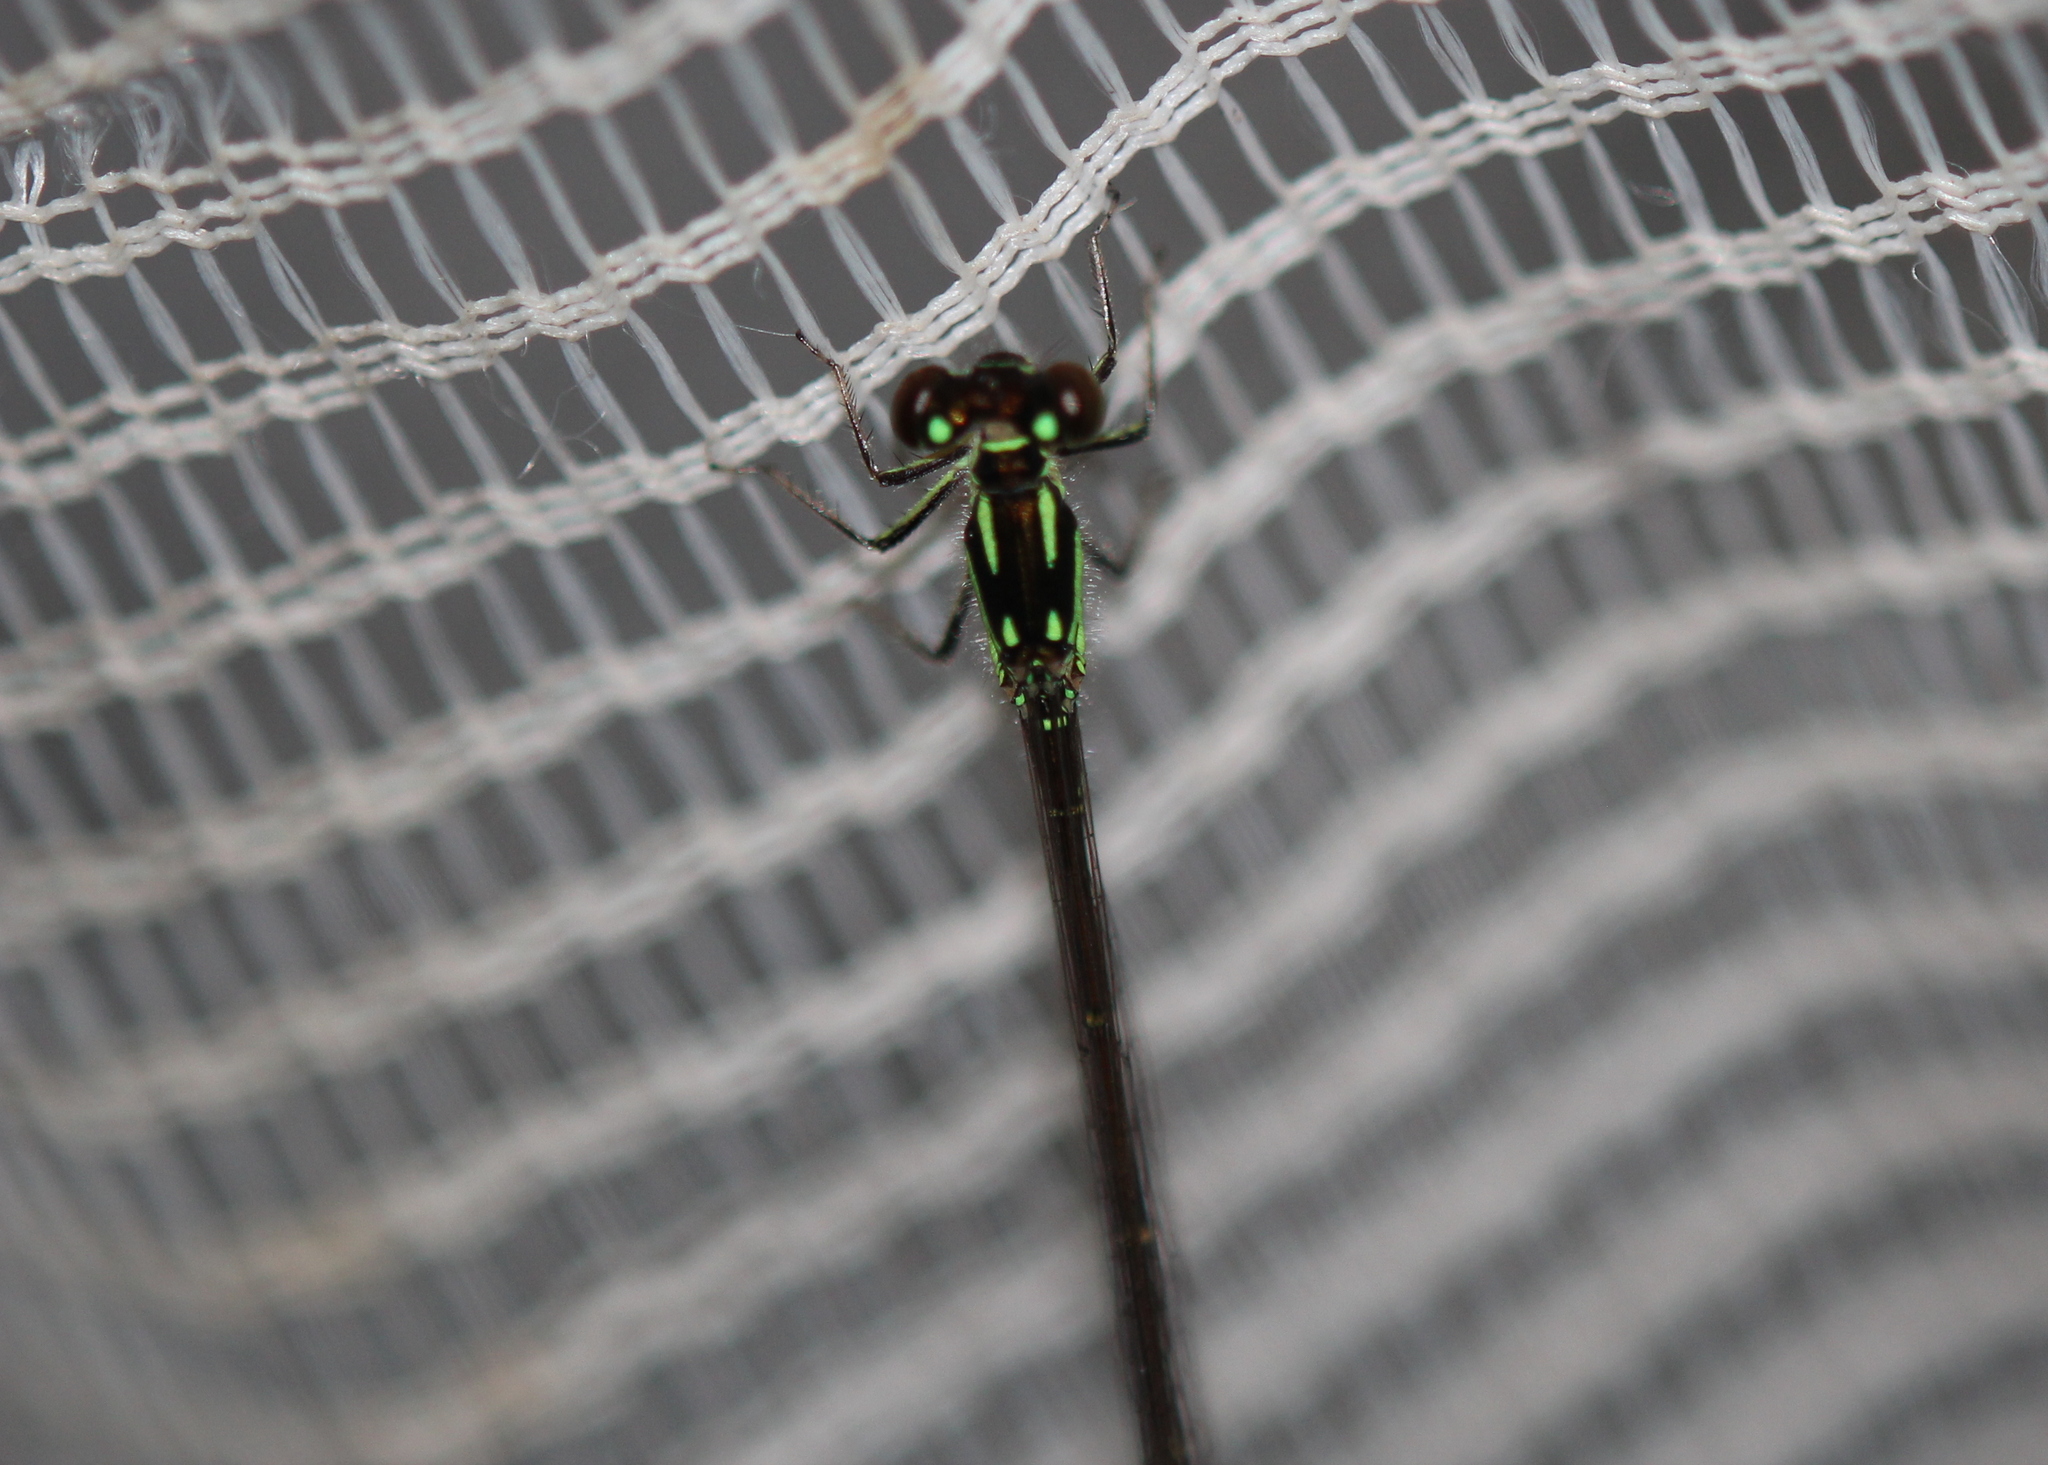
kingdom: Animalia
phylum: Arthropoda
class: Insecta
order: Odonata
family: Coenagrionidae
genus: Ischnura
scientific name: Ischnura posita
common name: Fragile forktail
